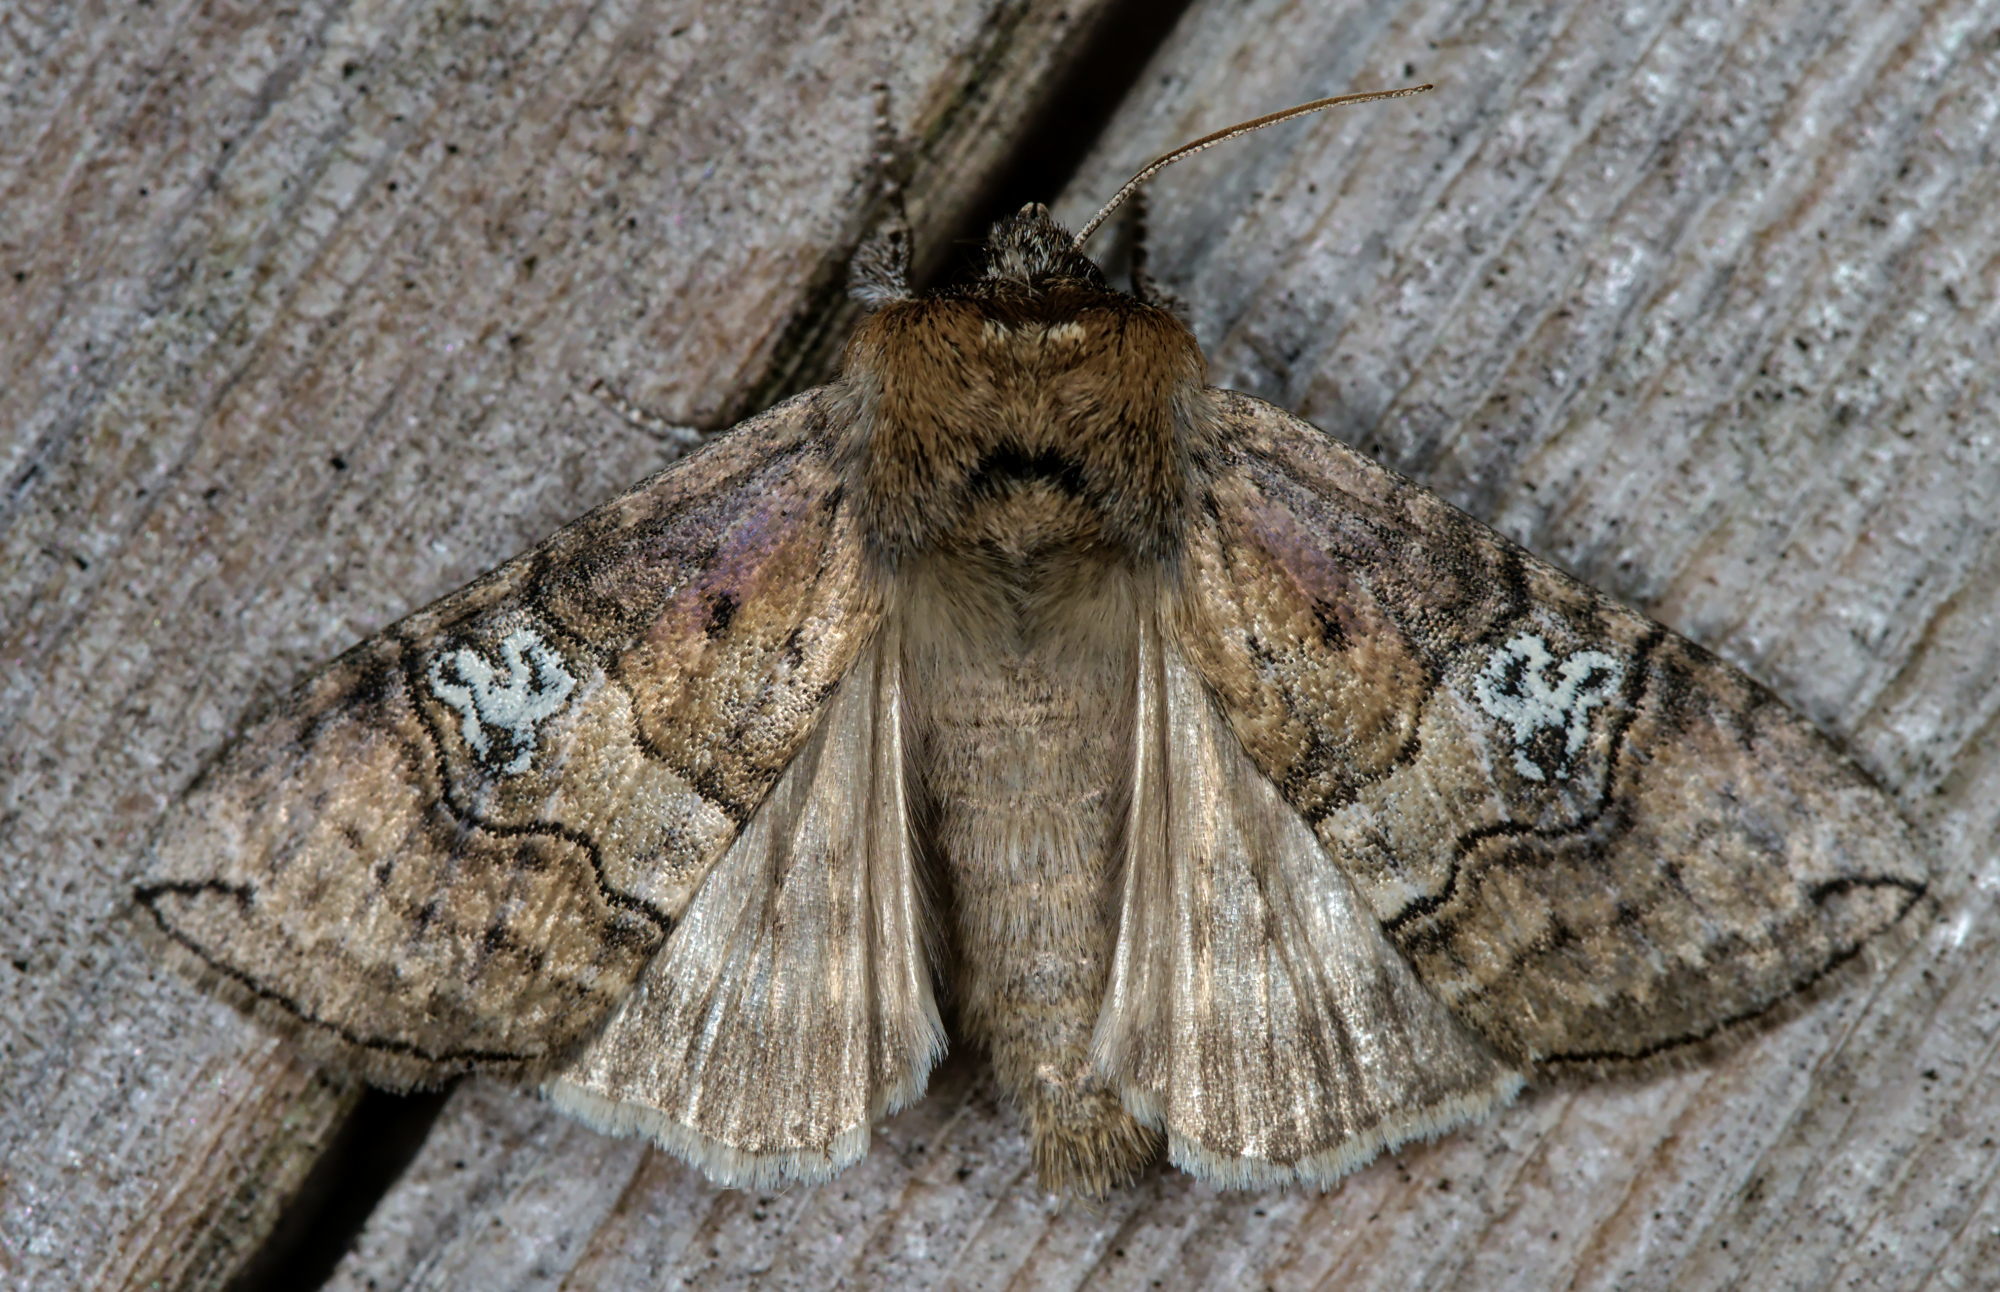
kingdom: Animalia
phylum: Arthropoda
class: Insecta
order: Lepidoptera
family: Drepanidae
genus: Tethea
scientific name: Tethea ocularis
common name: Figure of eighty
